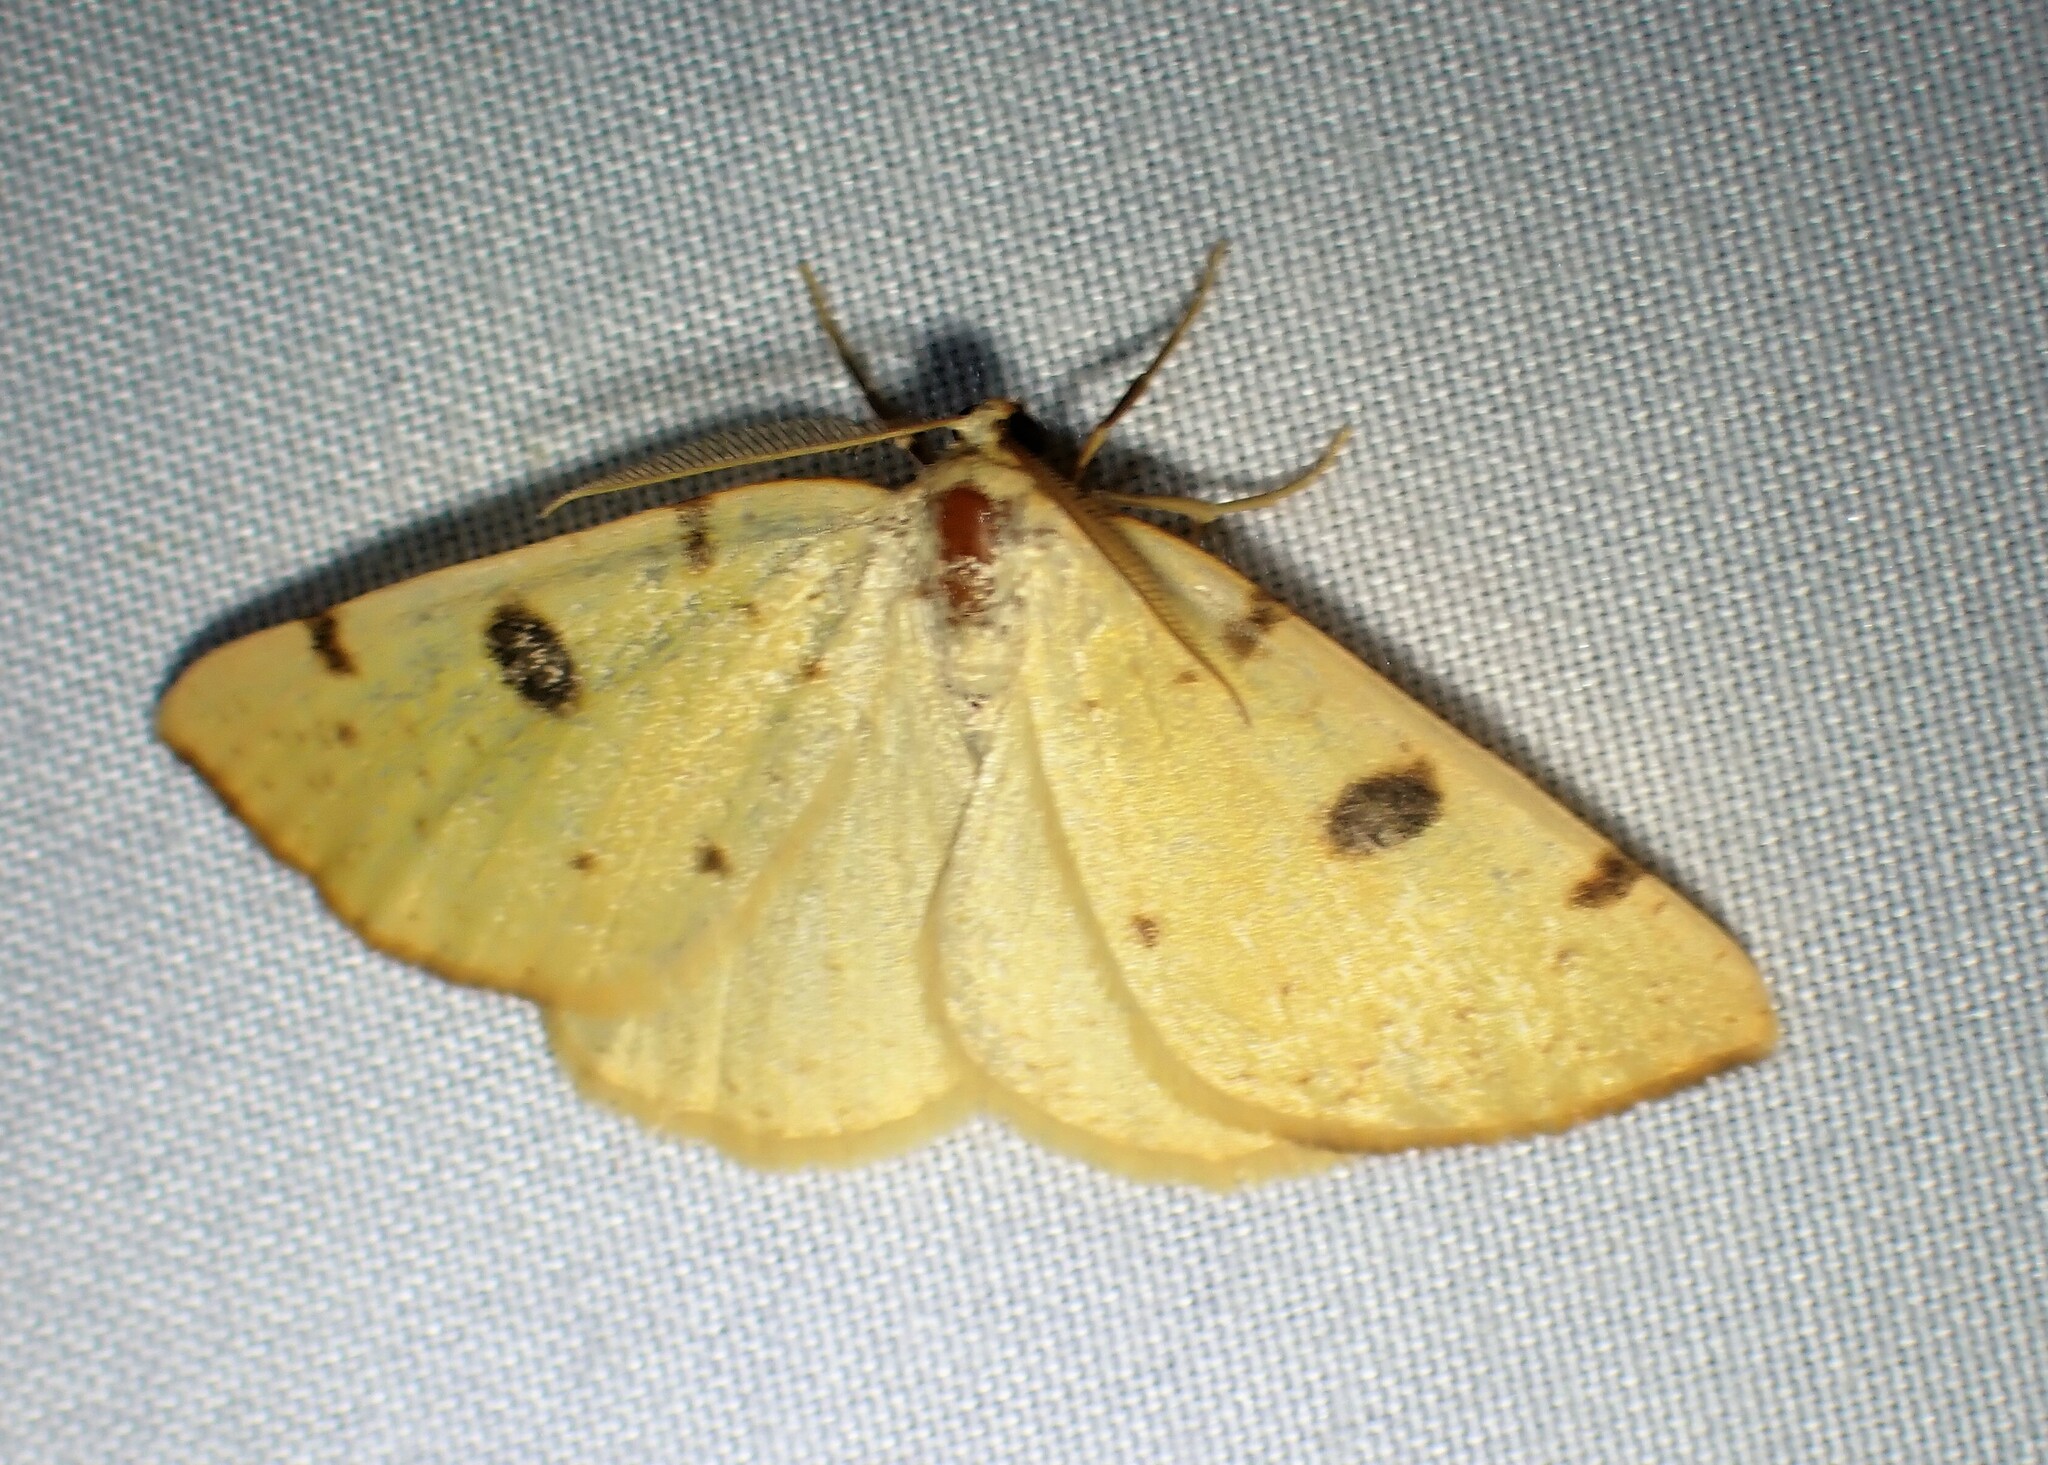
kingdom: Animalia
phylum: Arthropoda
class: Insecta
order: Lepidoptera
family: Geometridae
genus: Hesperumia
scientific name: Hesperumia sulphuraria
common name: Sulphur moth
